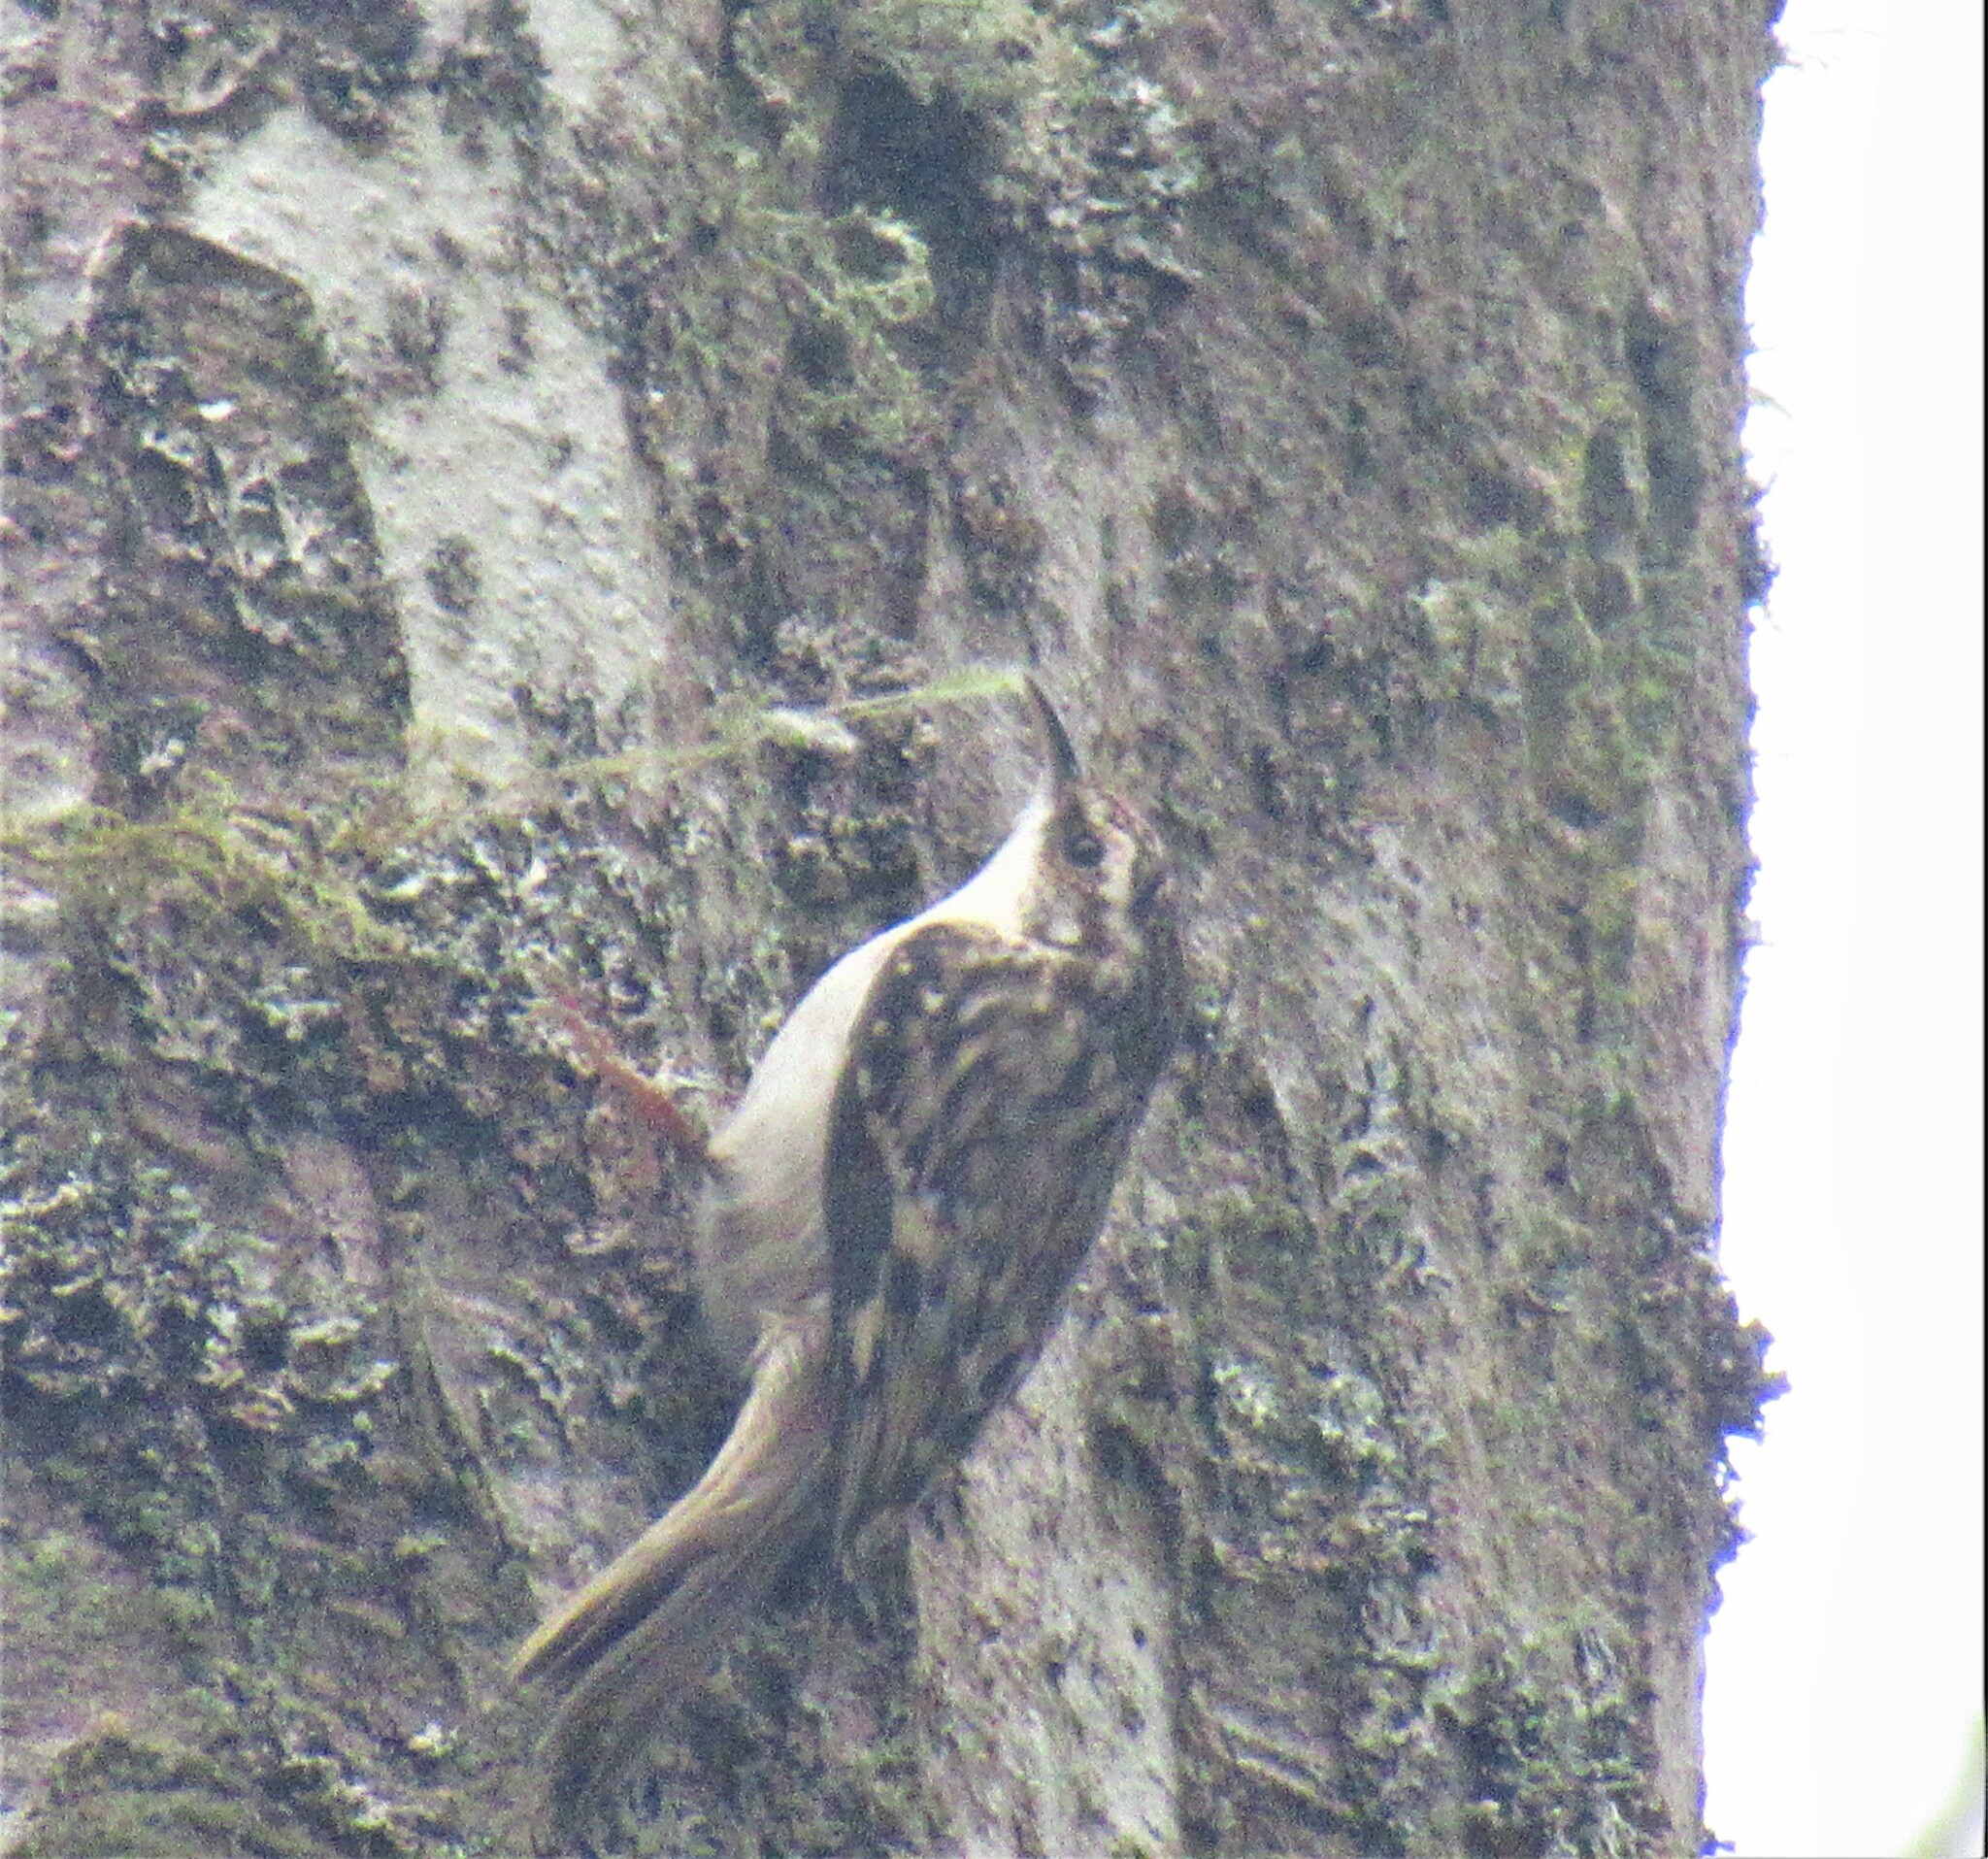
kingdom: Animalia
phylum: Chordata
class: Aves
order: Passeriformes
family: Certhiidae
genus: Certhia
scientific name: Certhia americana
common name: Brown creeper
